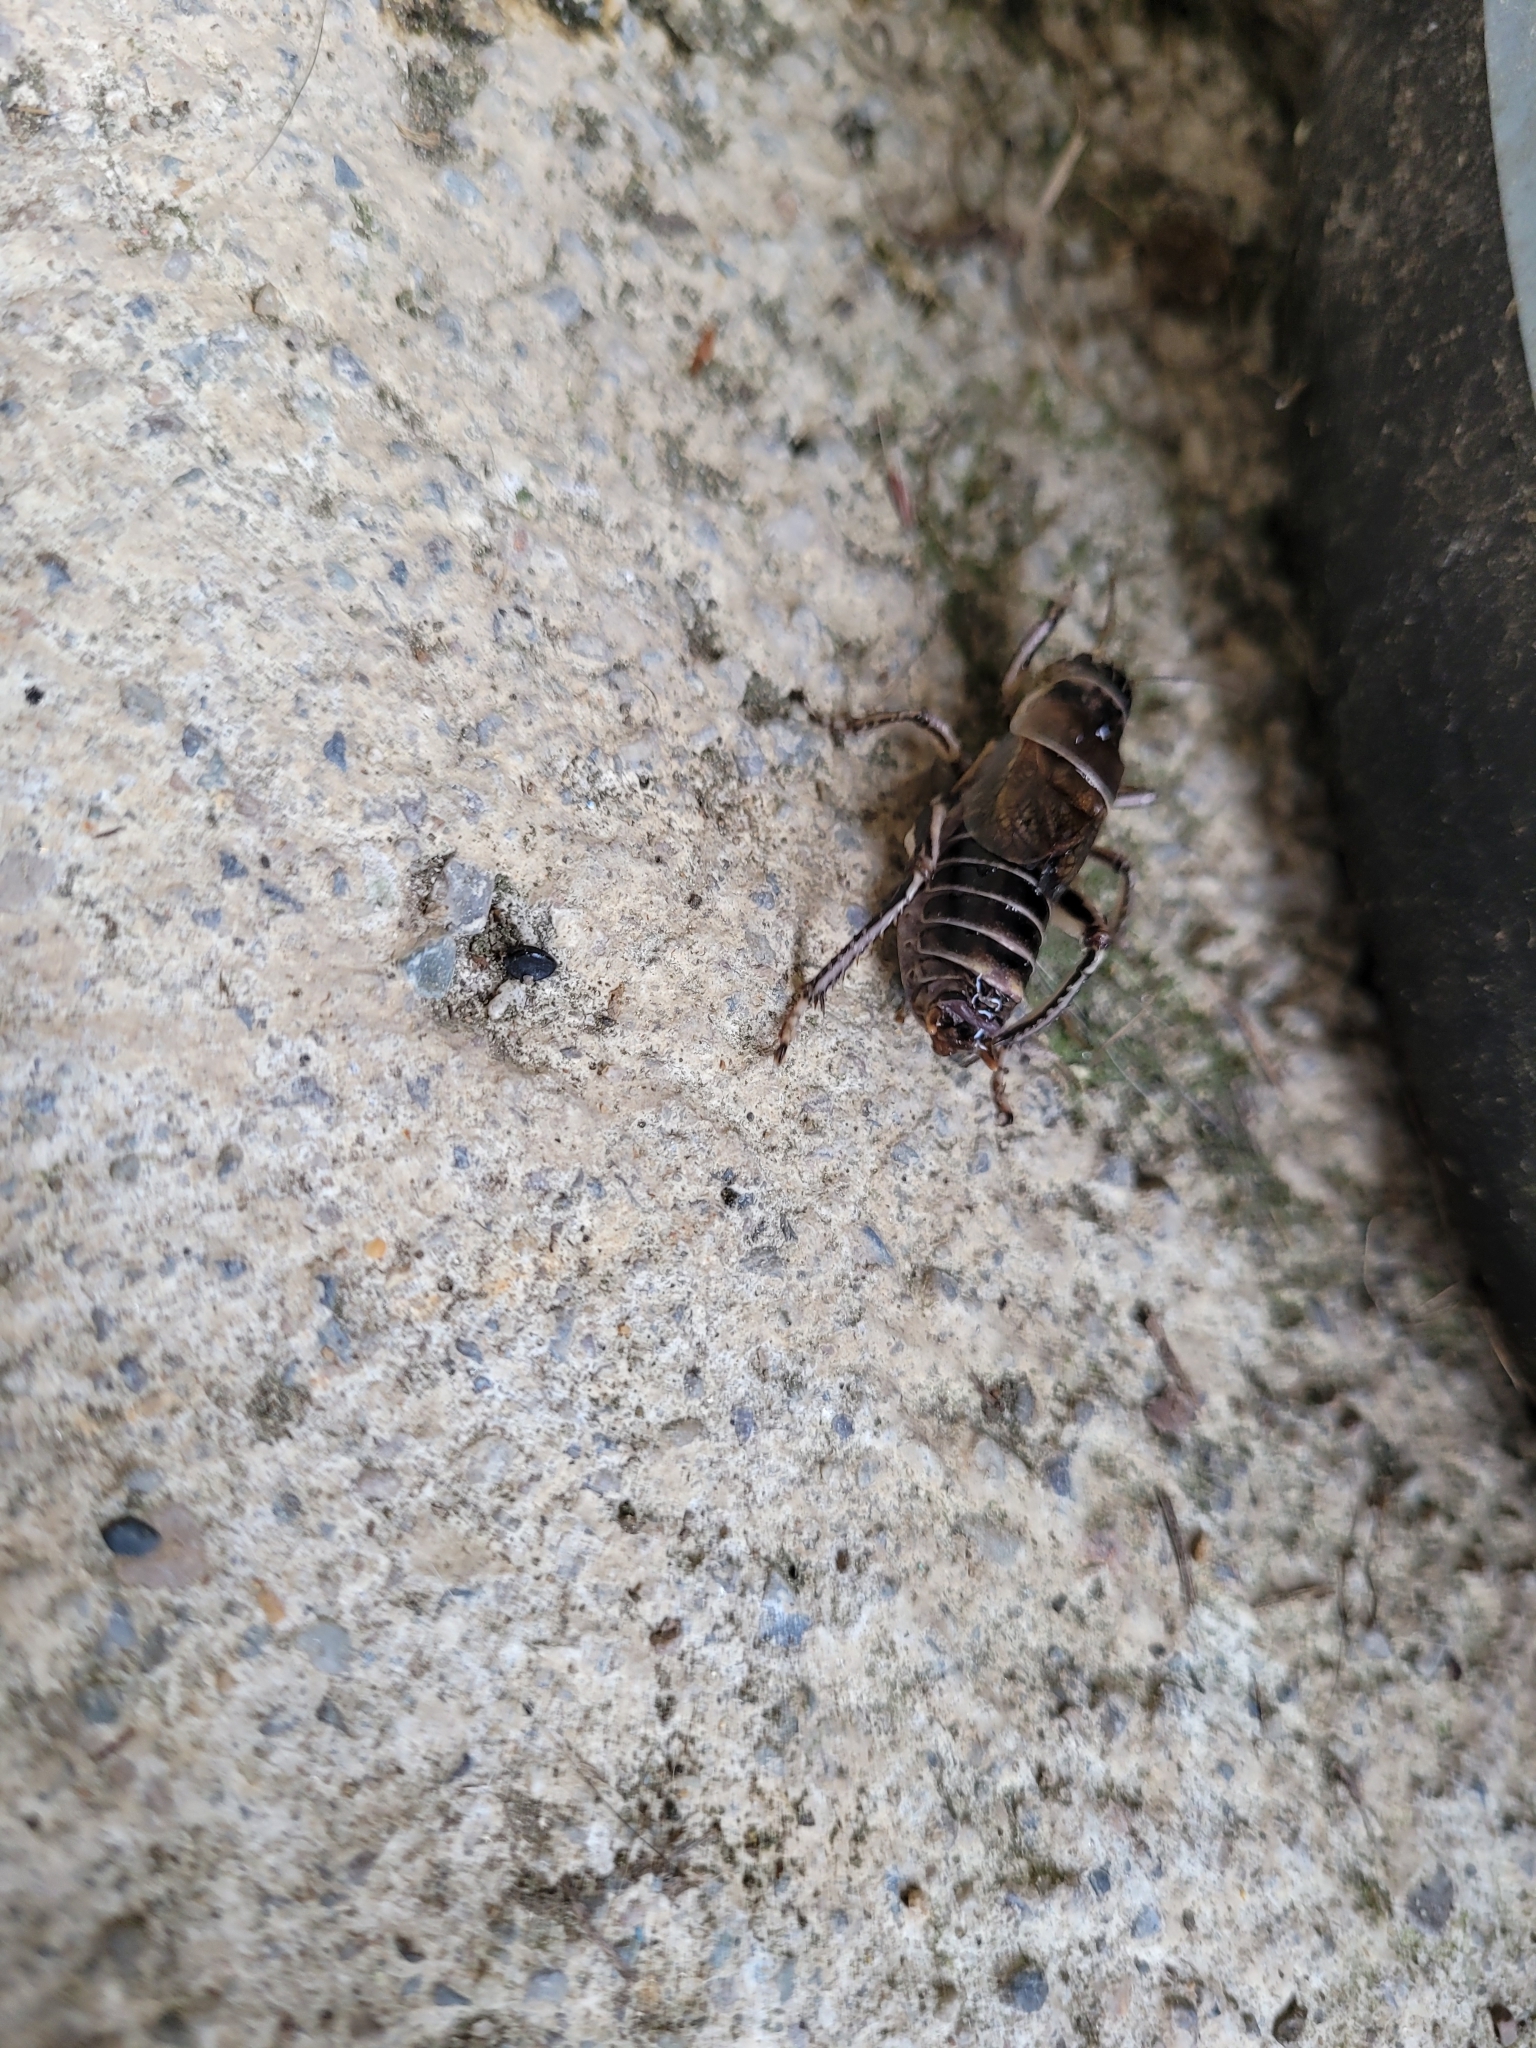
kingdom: Animalia
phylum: Arthropoda
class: Insecta
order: Orthoptera
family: Prophalangopsidae
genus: Cyphoderris
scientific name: Cyphoderris buckelli
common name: Buckell’s grig
